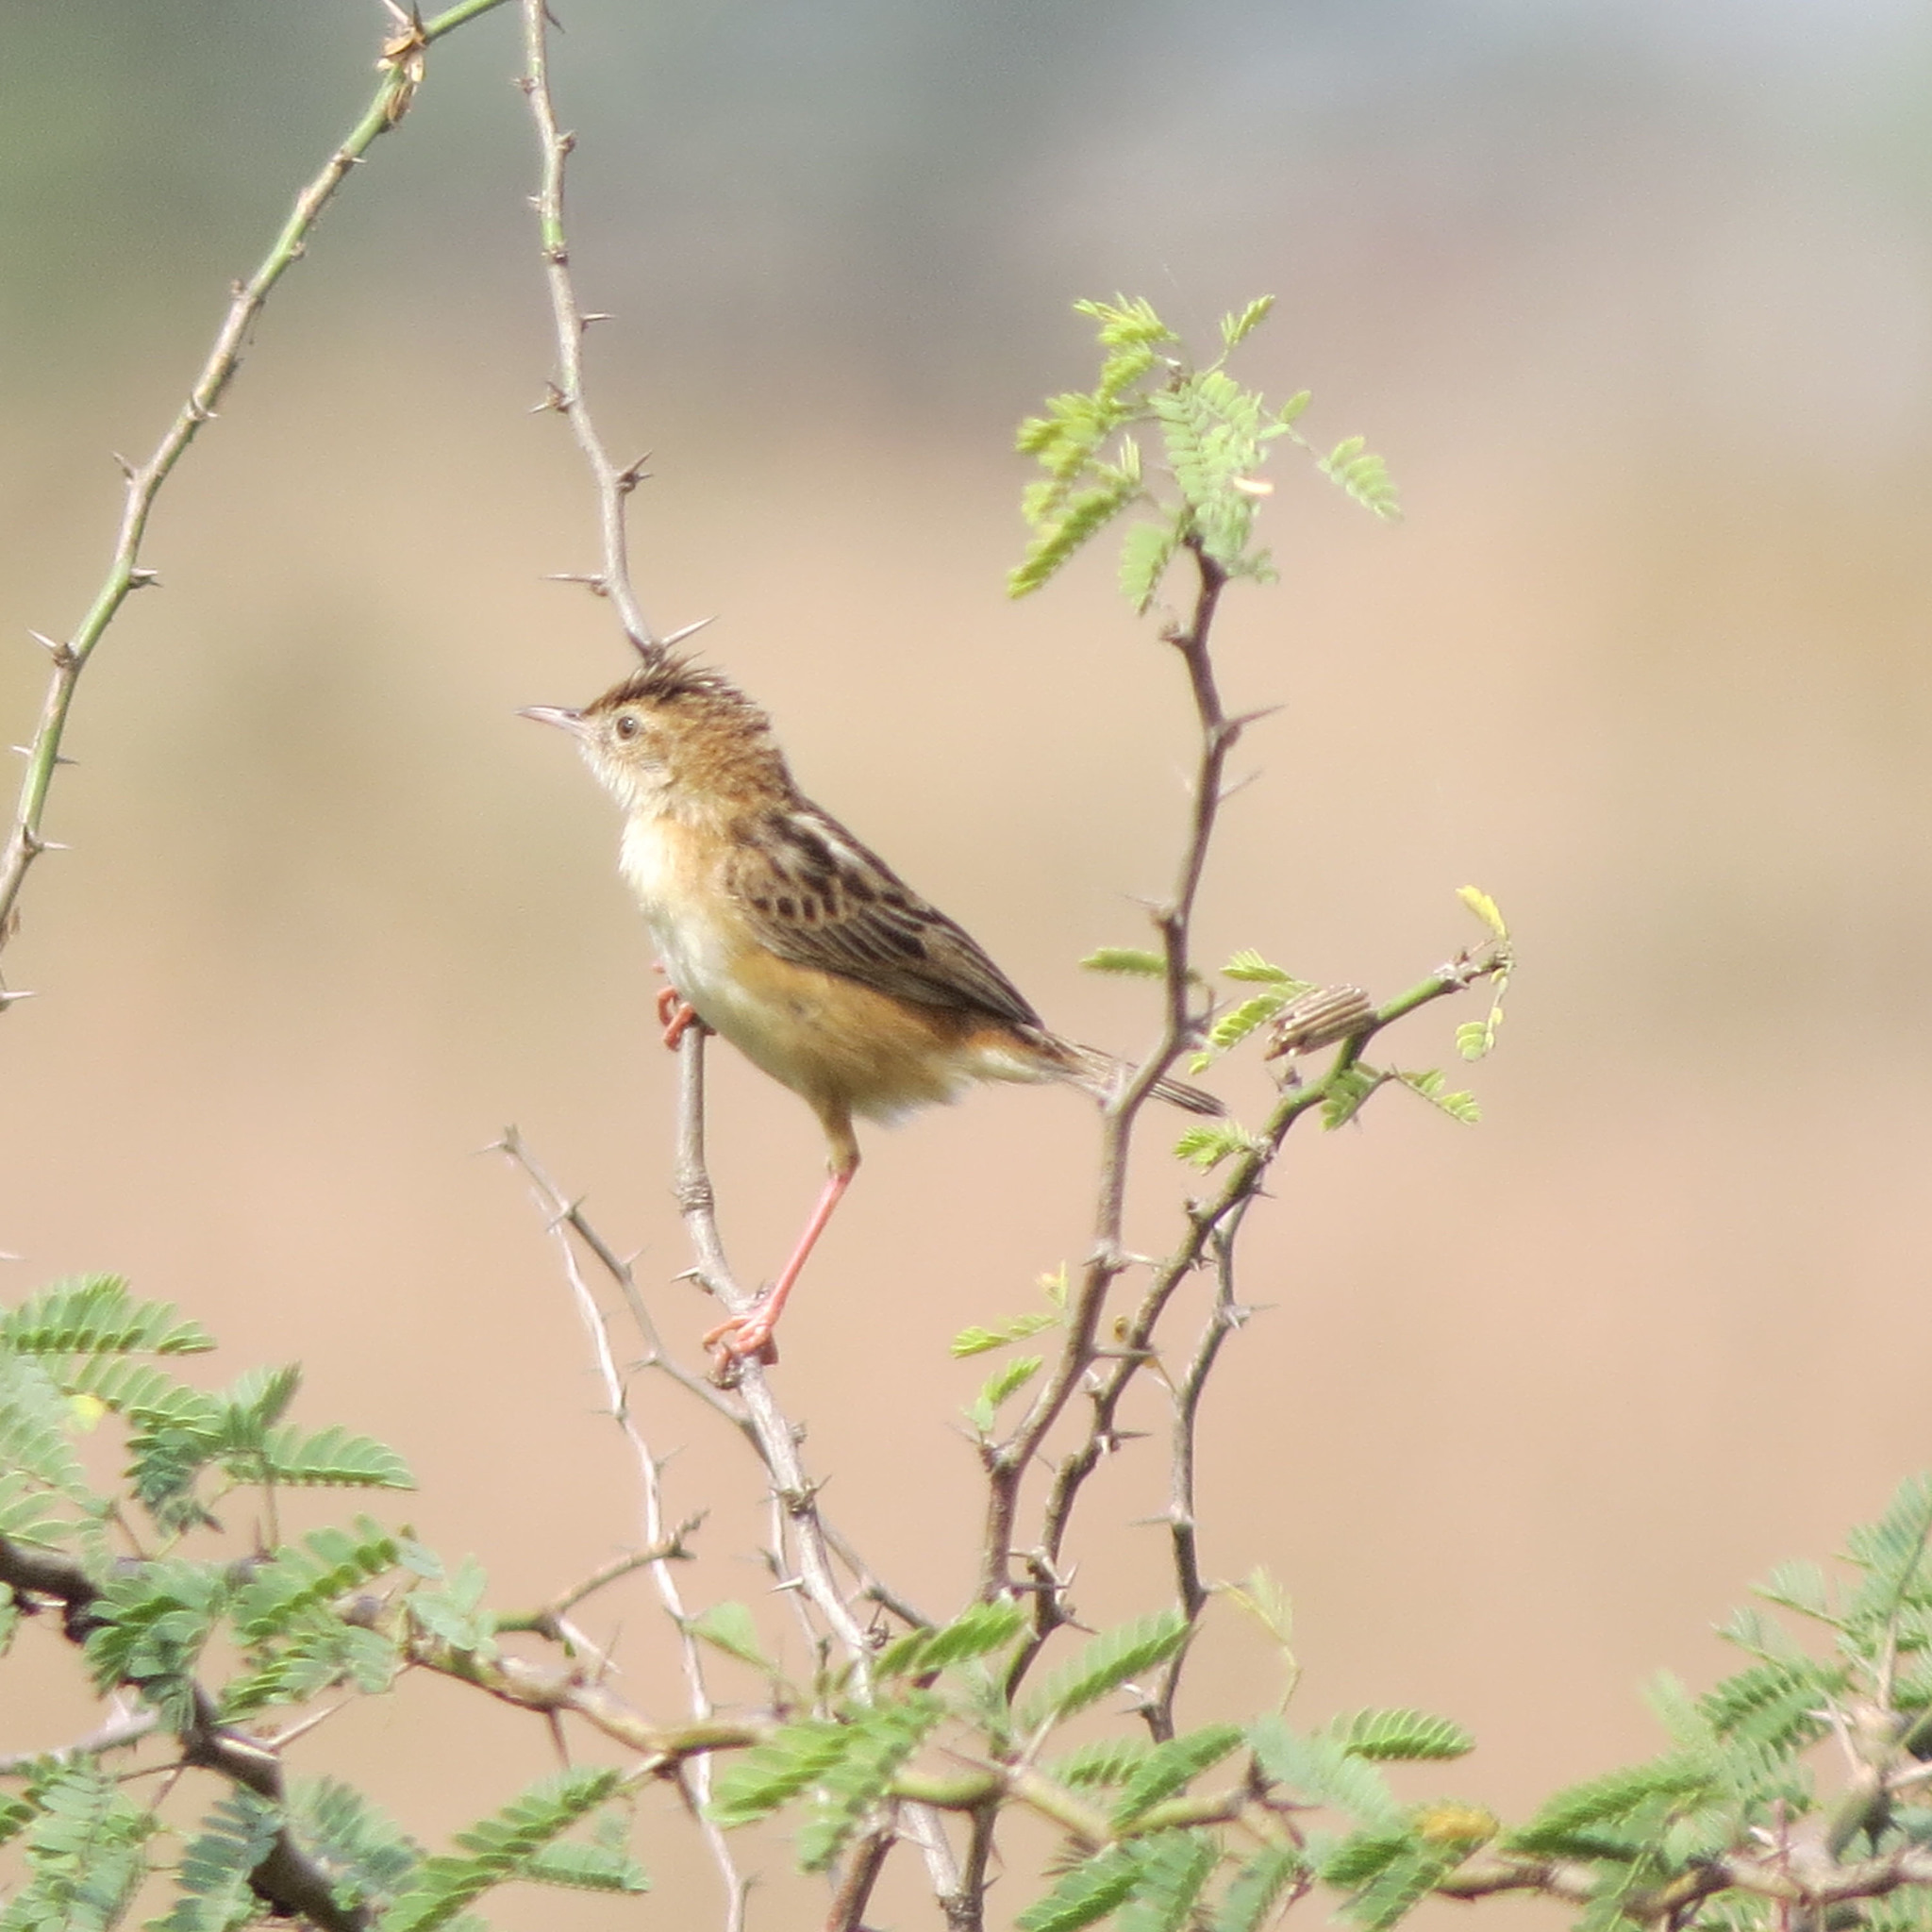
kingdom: Animalia
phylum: Chordata
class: Aves
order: Passeriformes
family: Cisticolidae
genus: Cisticola
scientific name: Cisticola juncidis
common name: Zitting cisticola
